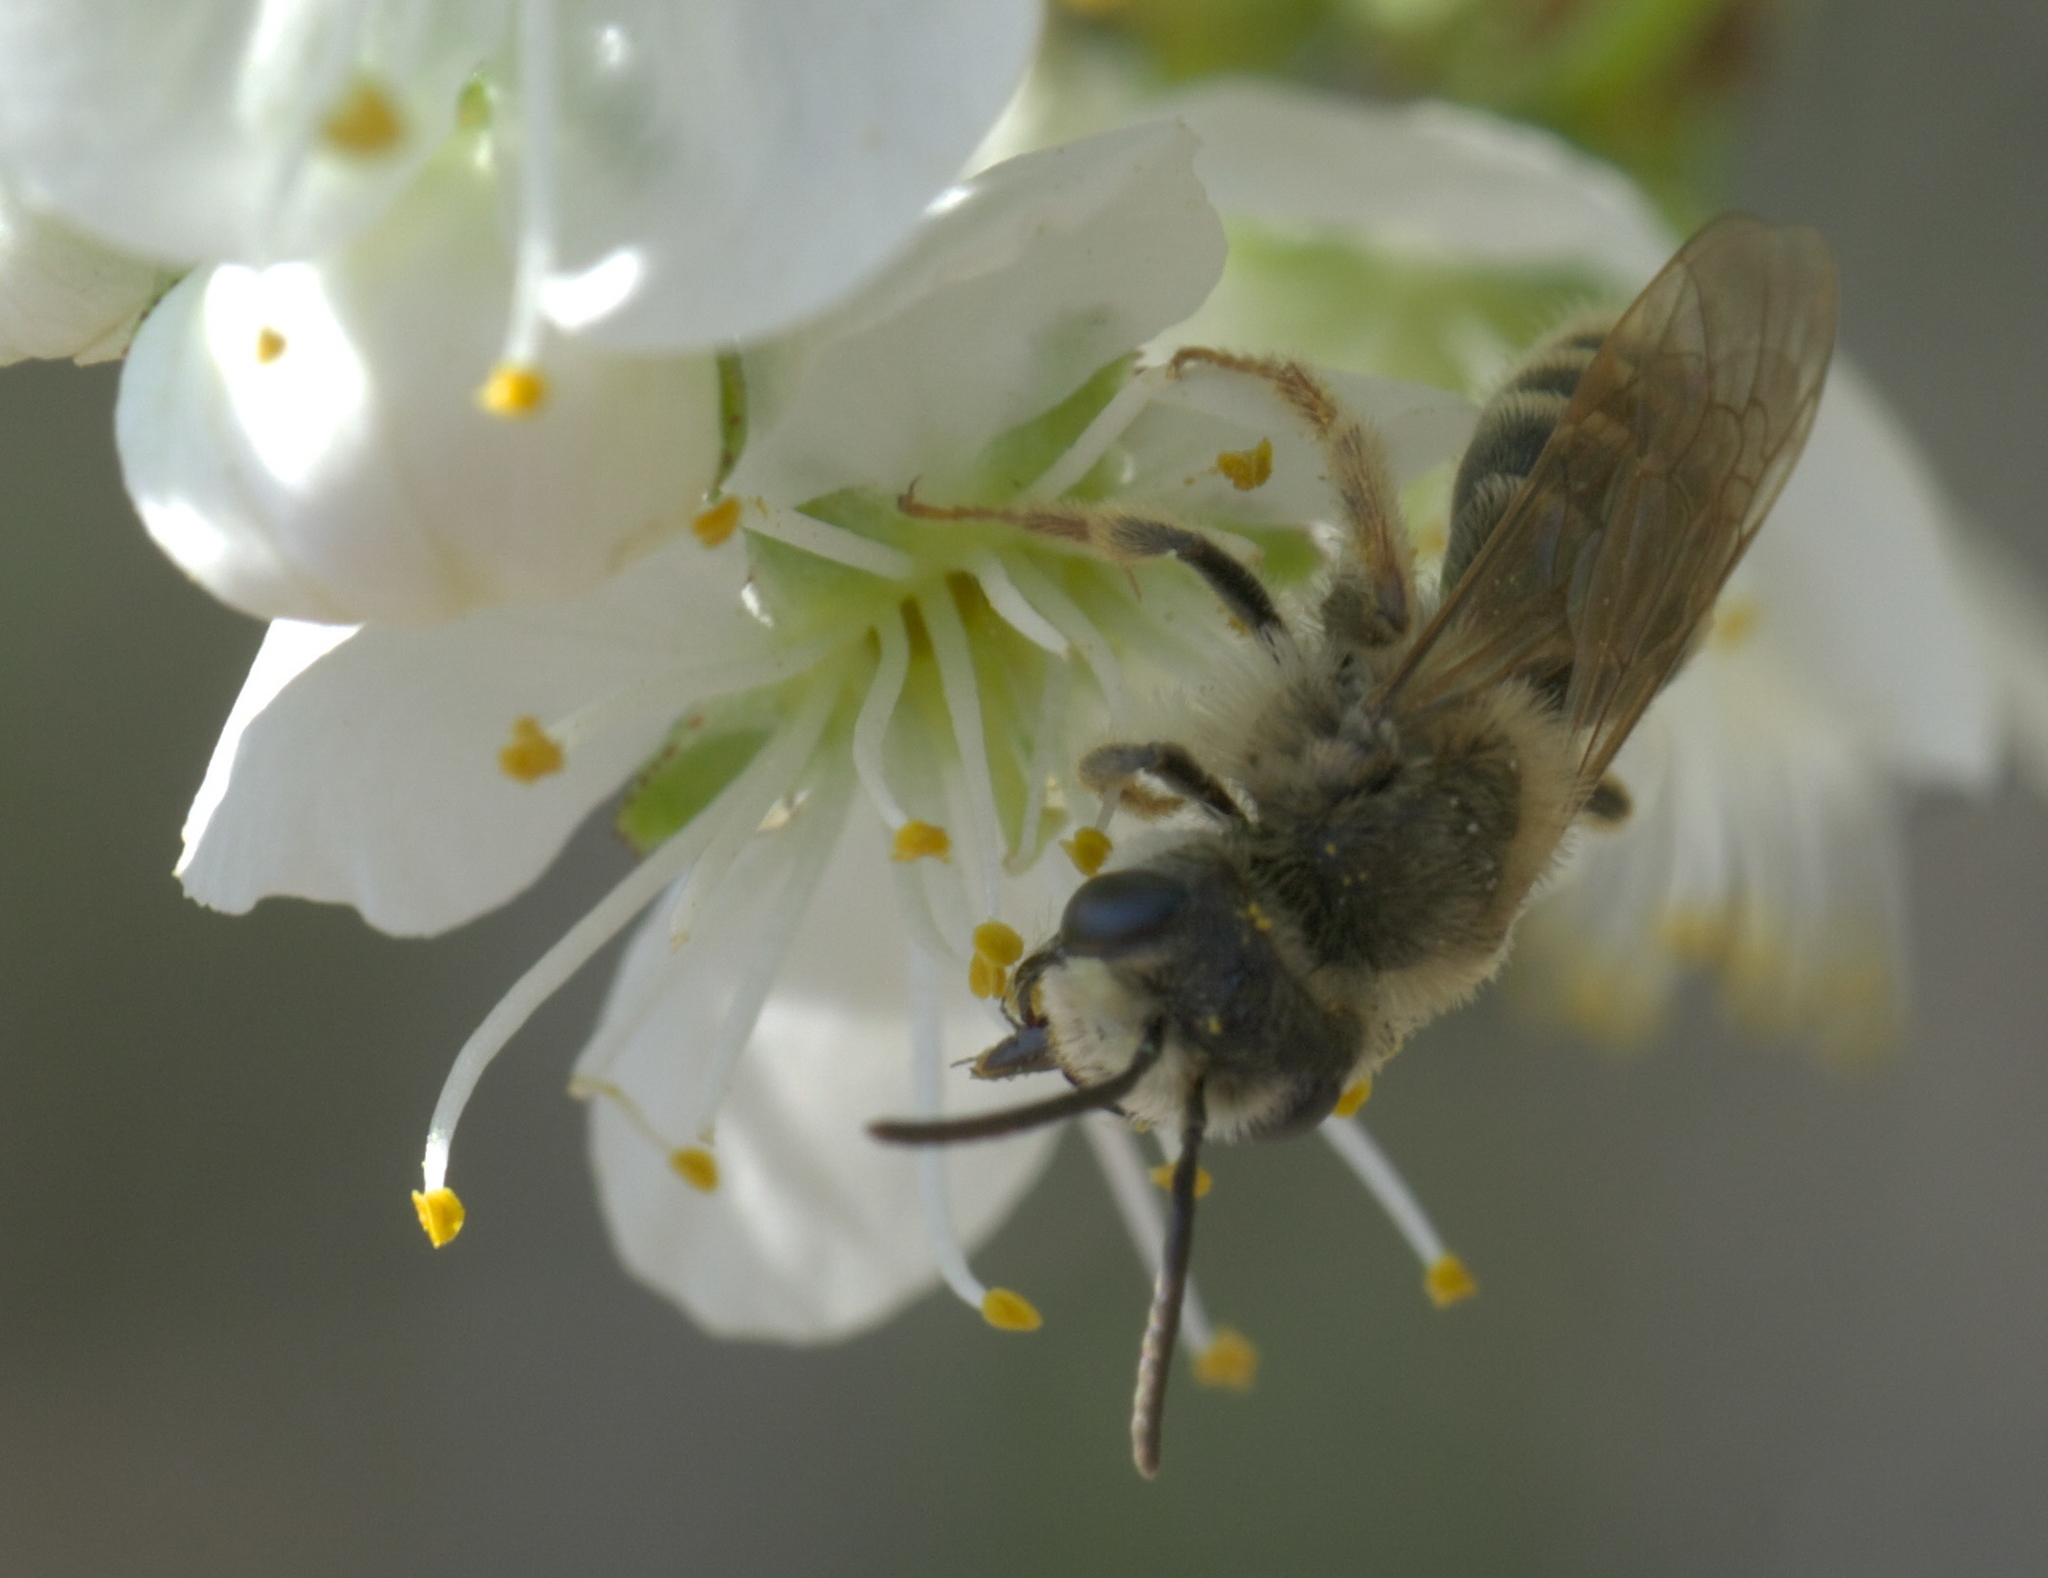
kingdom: Animalia
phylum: Arthropoda
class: Insecta
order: Hymenoptera
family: Andrenidae
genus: Andrena
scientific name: Andrena cressonii
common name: Cresson's mining bee
